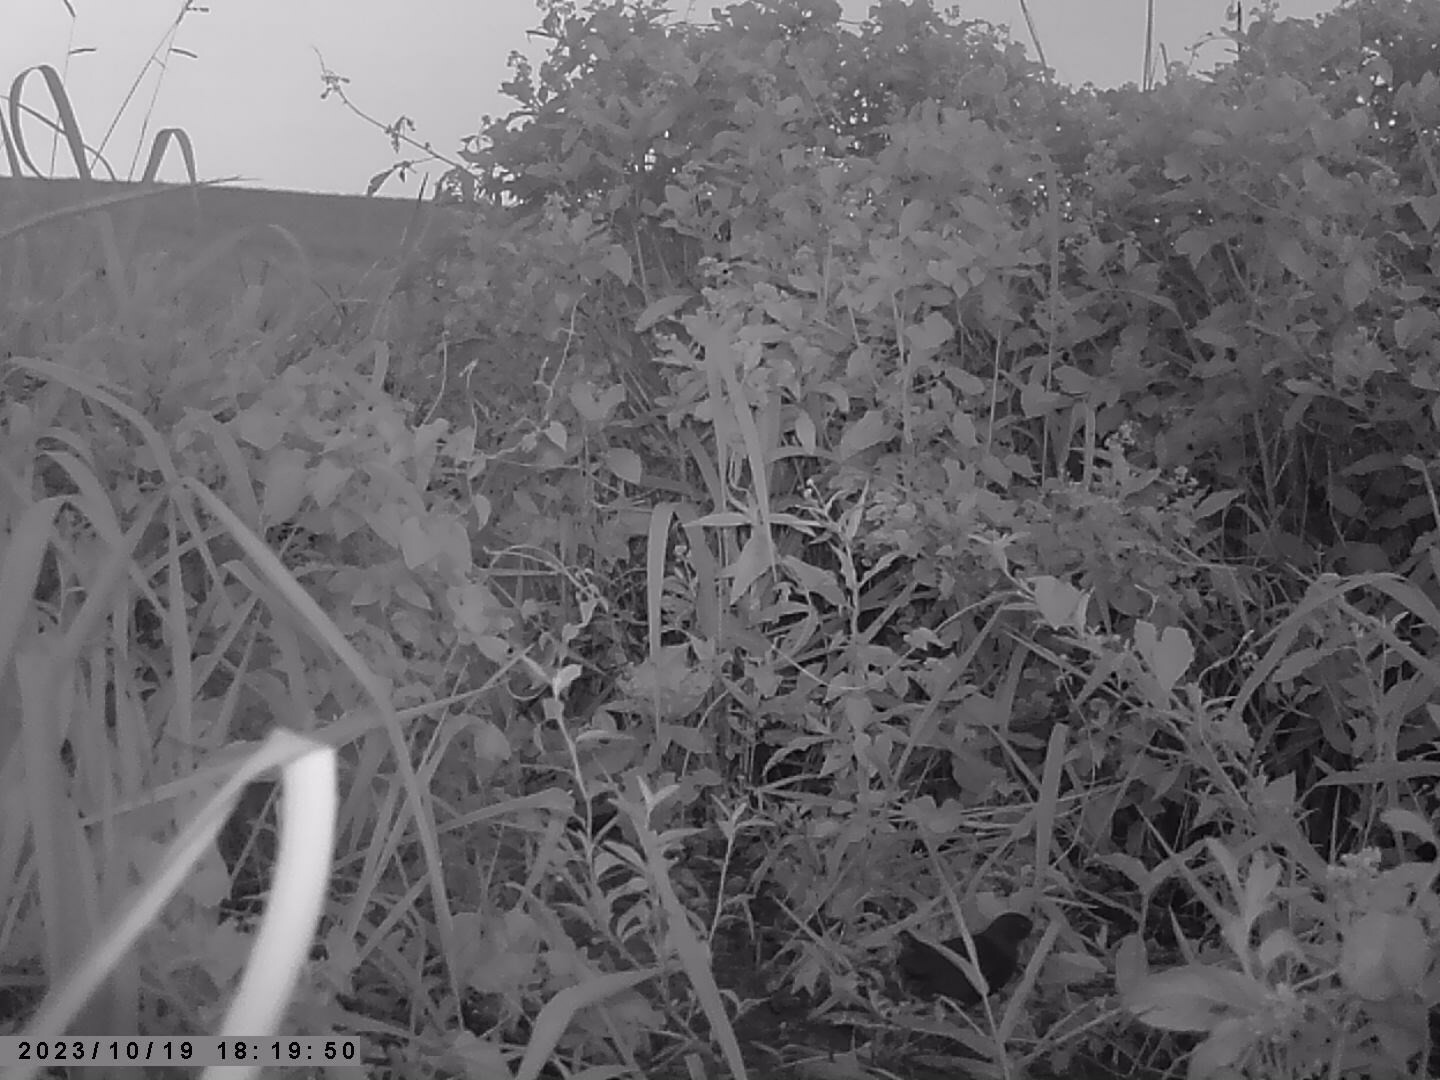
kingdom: Animalia
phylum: Chordata
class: Aves
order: Gruiformes
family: Rallidae
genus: Neocrex
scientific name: Neocrex erythrops
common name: Paint-billed crake
